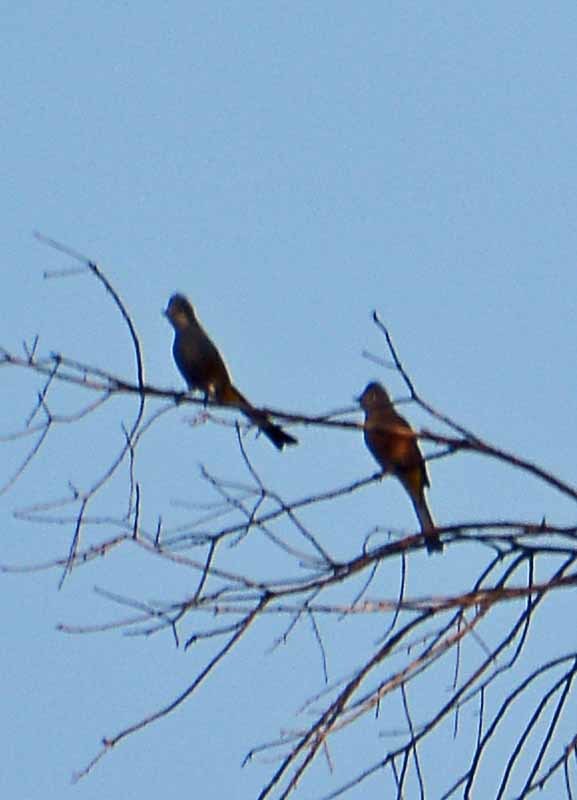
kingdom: Animalia
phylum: Chordata
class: Aves
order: Passeriformes
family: Ptilogonatidae
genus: Ptilogonys
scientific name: Ptilogonys cinereus
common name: Gray silky-flycatcher
